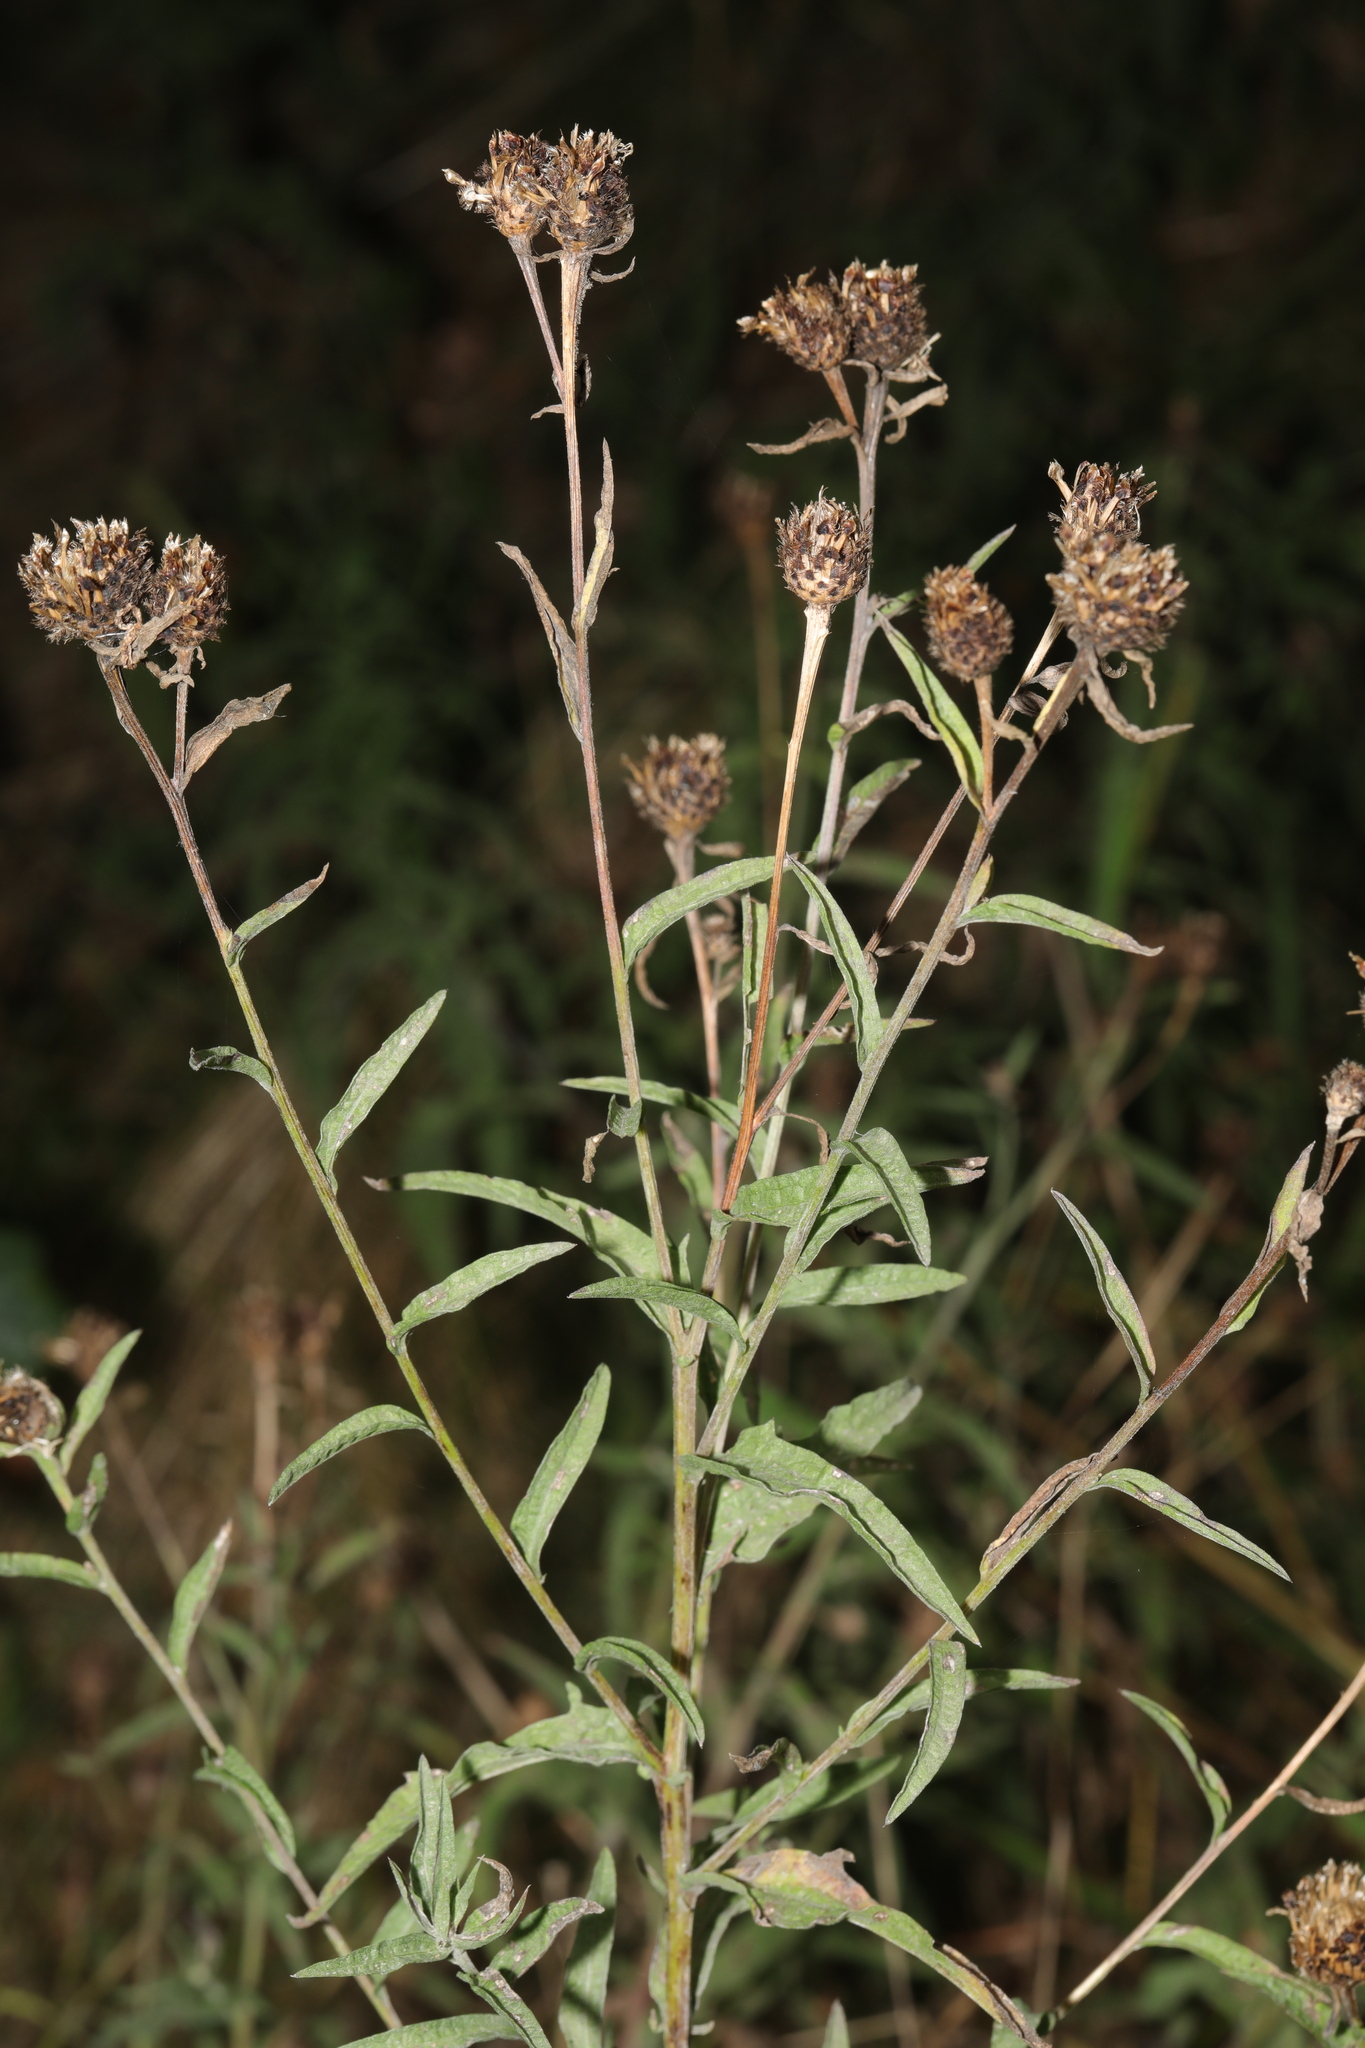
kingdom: Plantae
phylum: Tracheophyta
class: Magnoliopsida
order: Asterales
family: Asteraceae
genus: Centaurea
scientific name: Centaurea nigra
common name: Lesser knapweed
